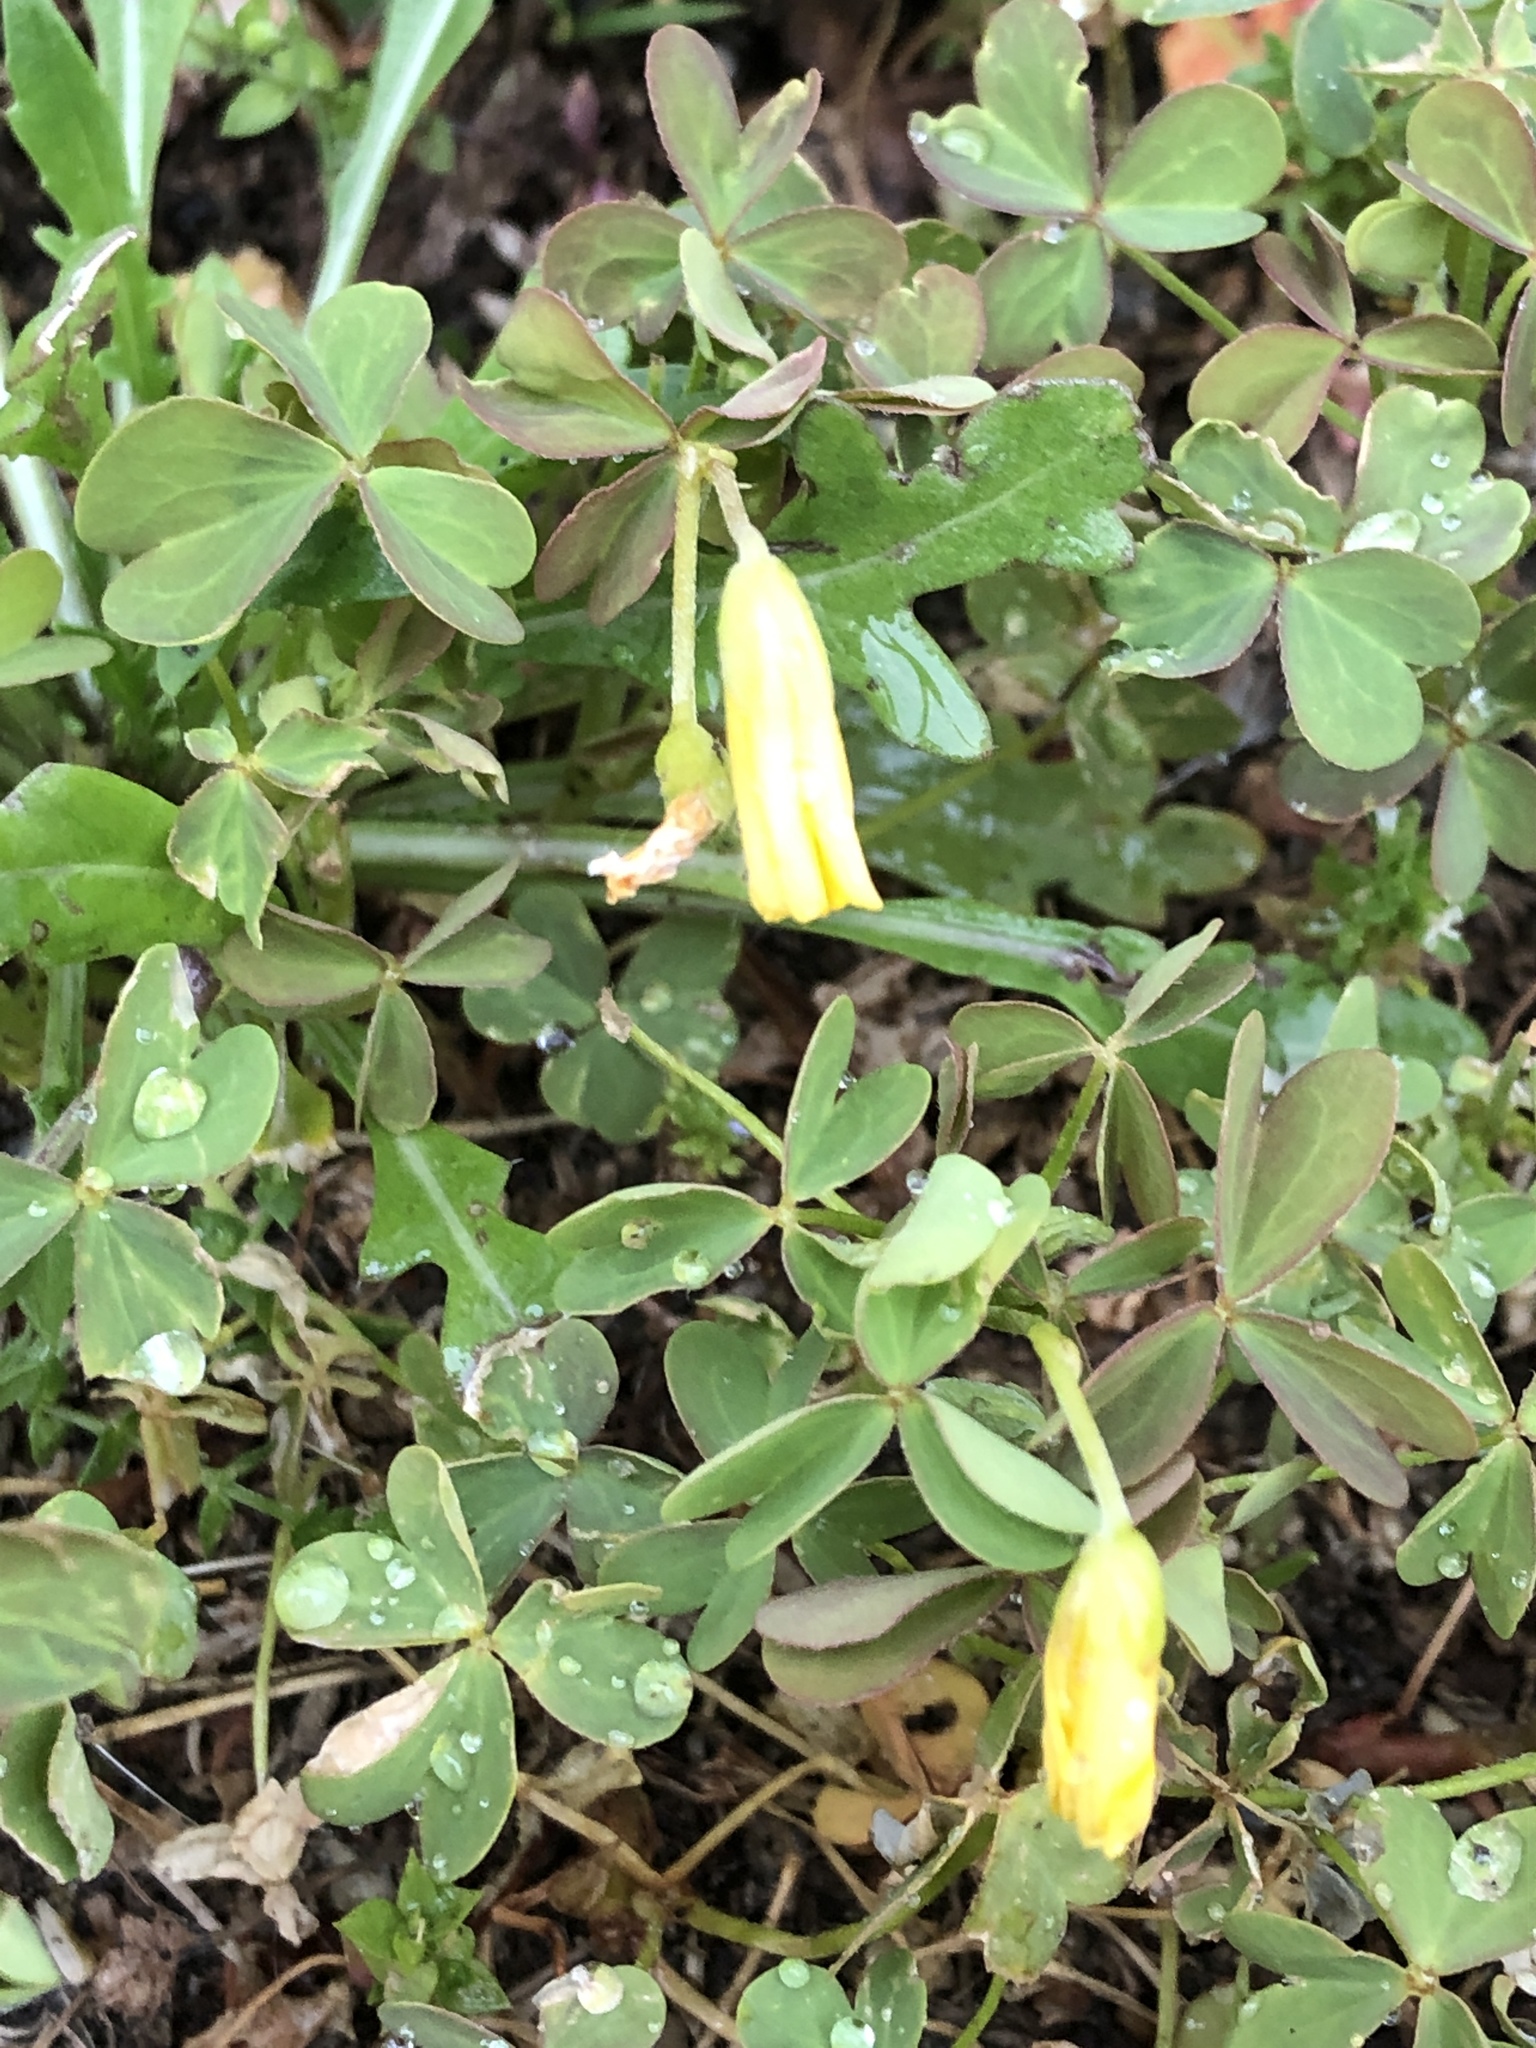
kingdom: Plantae
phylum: Tracheophyta
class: Magnoliopsida
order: Oxalidales
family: Oxalidaceae
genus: Oxalis
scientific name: Oxalis corniculata
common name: Procumbent yellow-sorrel
